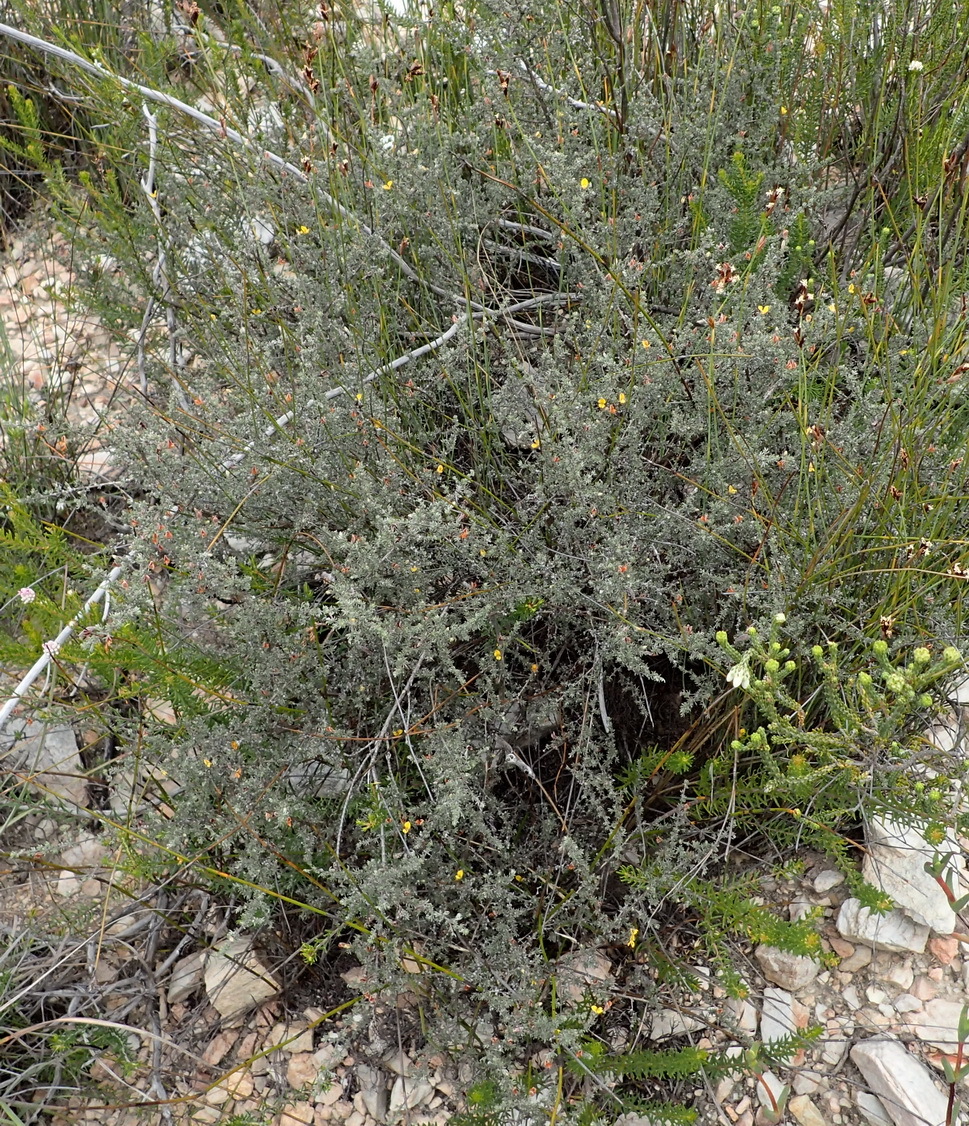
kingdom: Plantae
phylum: Tracheophyta
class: Magnoliopsida
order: Fabales
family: Fabaceae
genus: Aspalathus
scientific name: Aspalathus rubens
